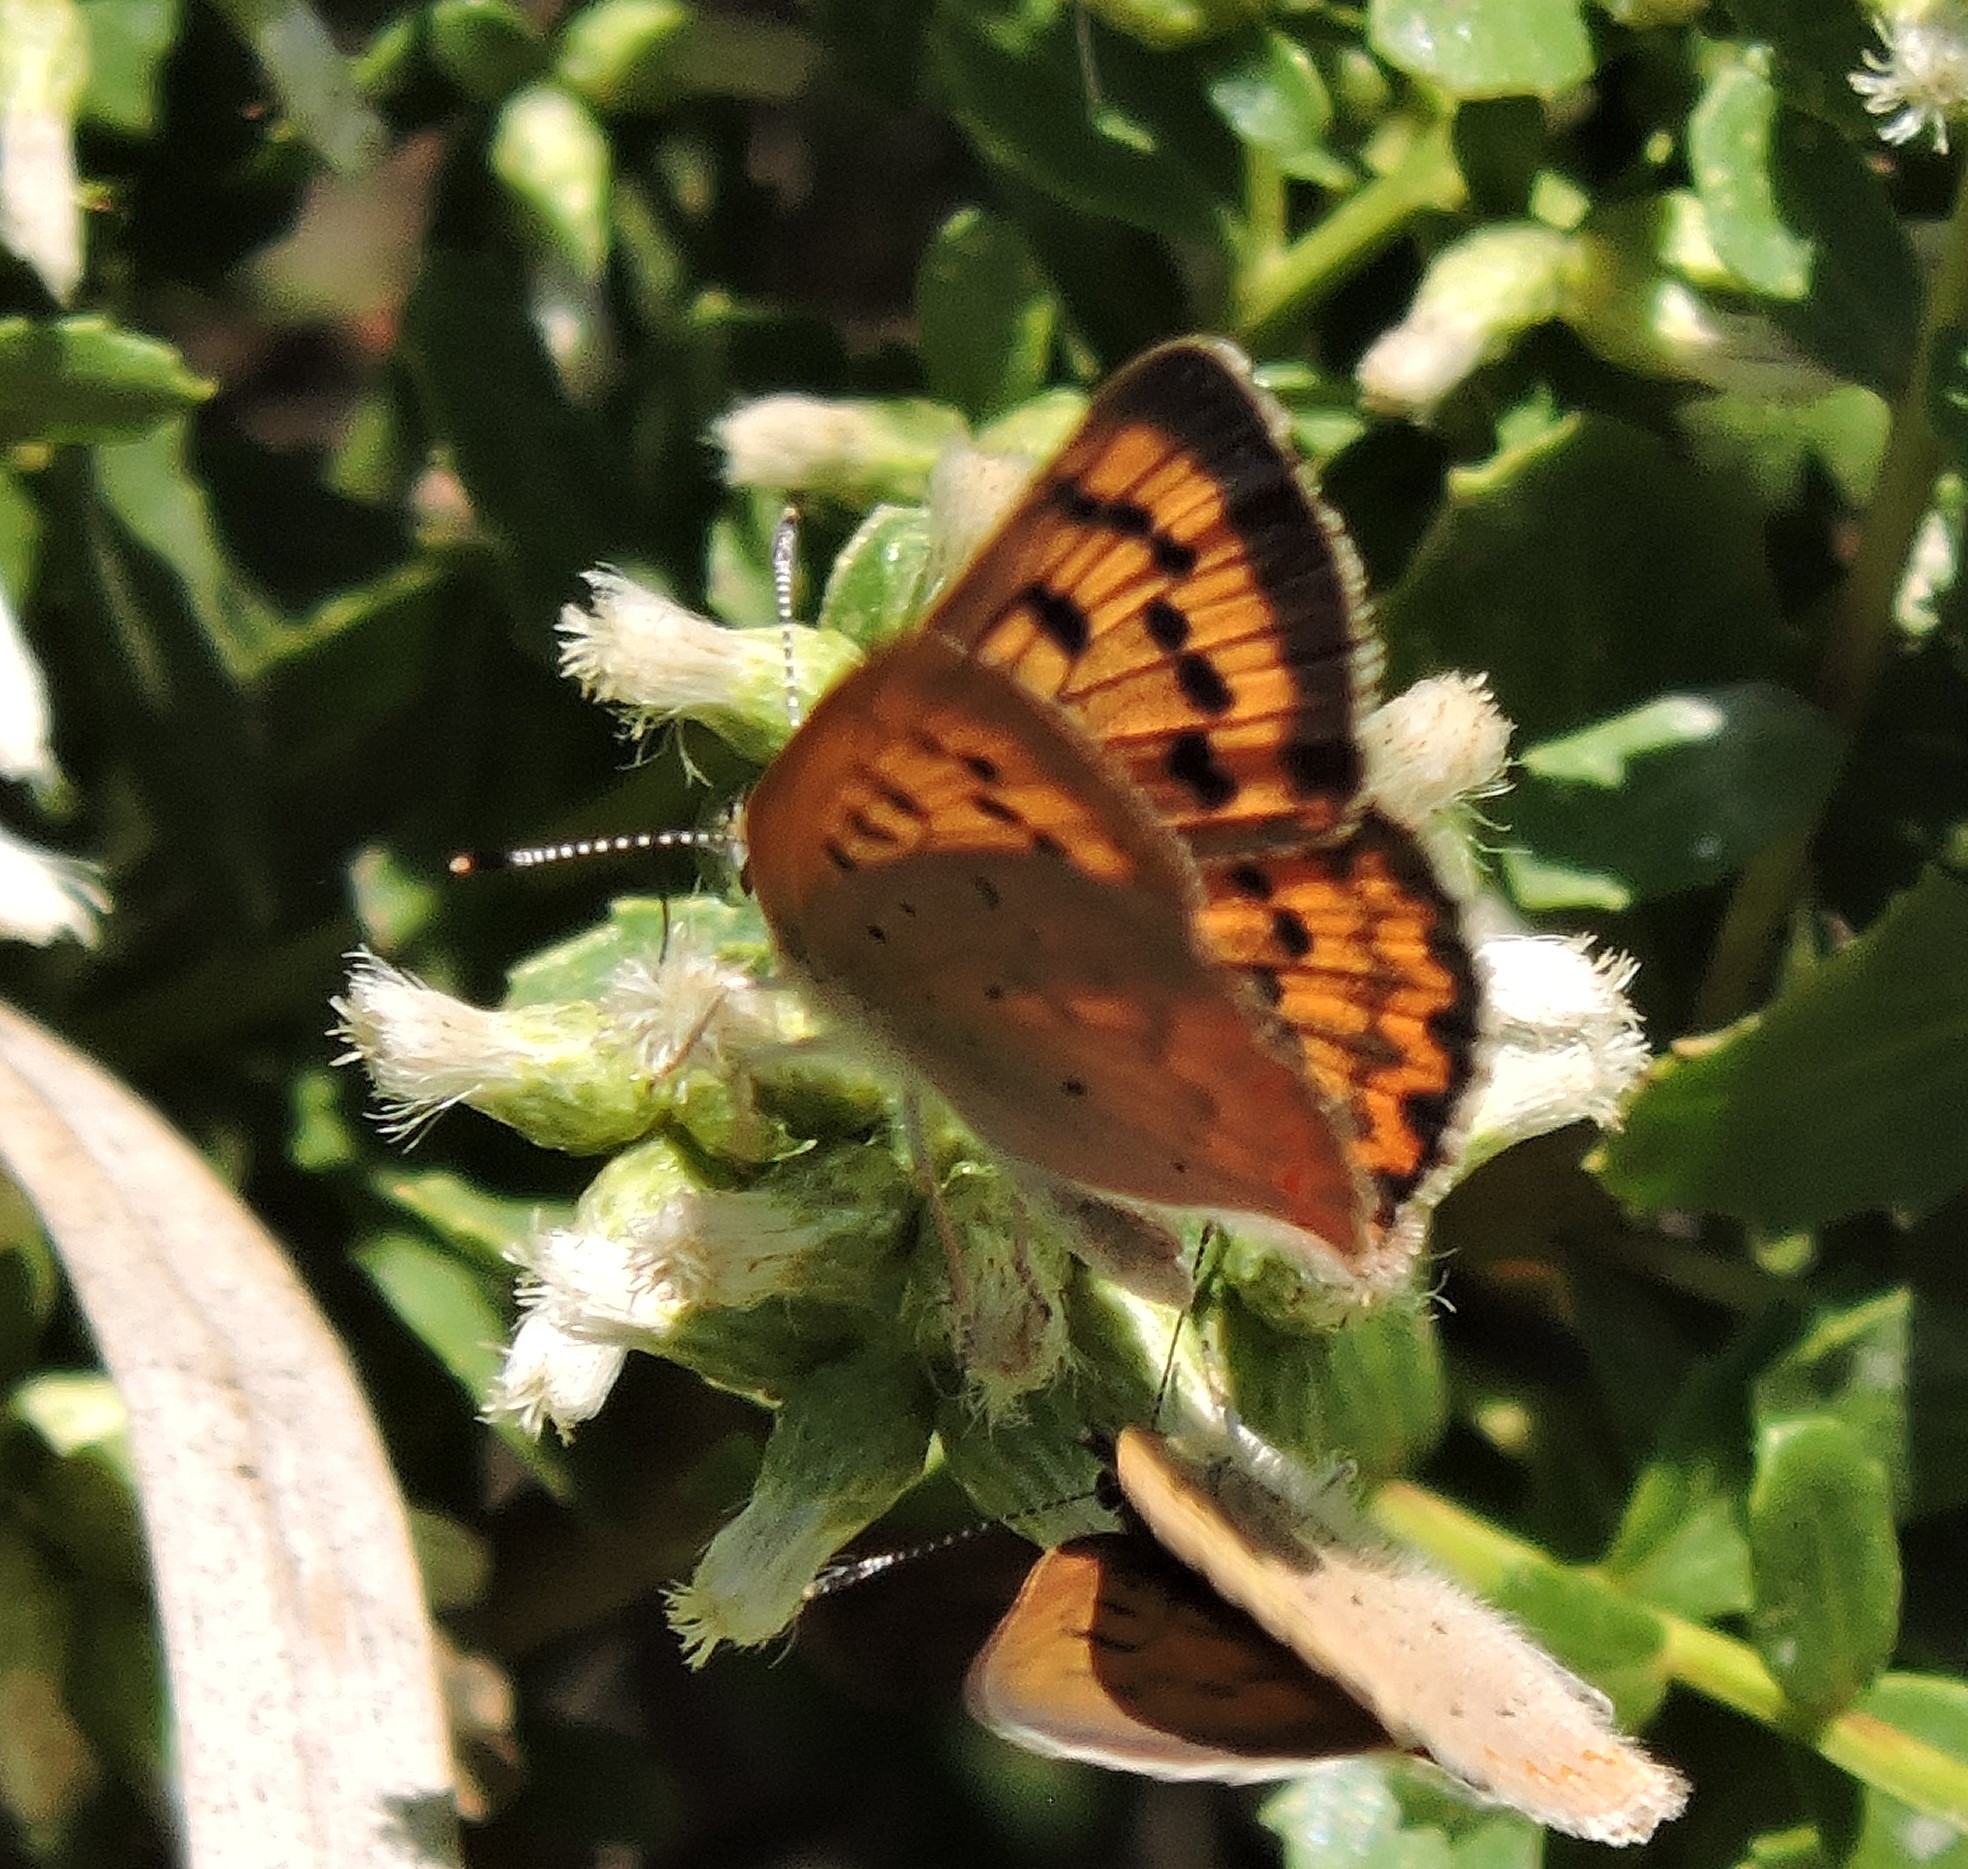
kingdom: Animalia
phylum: Arthropoda
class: Insecta
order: Lepidoptera
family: Lycaenidae
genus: Tharsalea
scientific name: Tharsalea helloides
